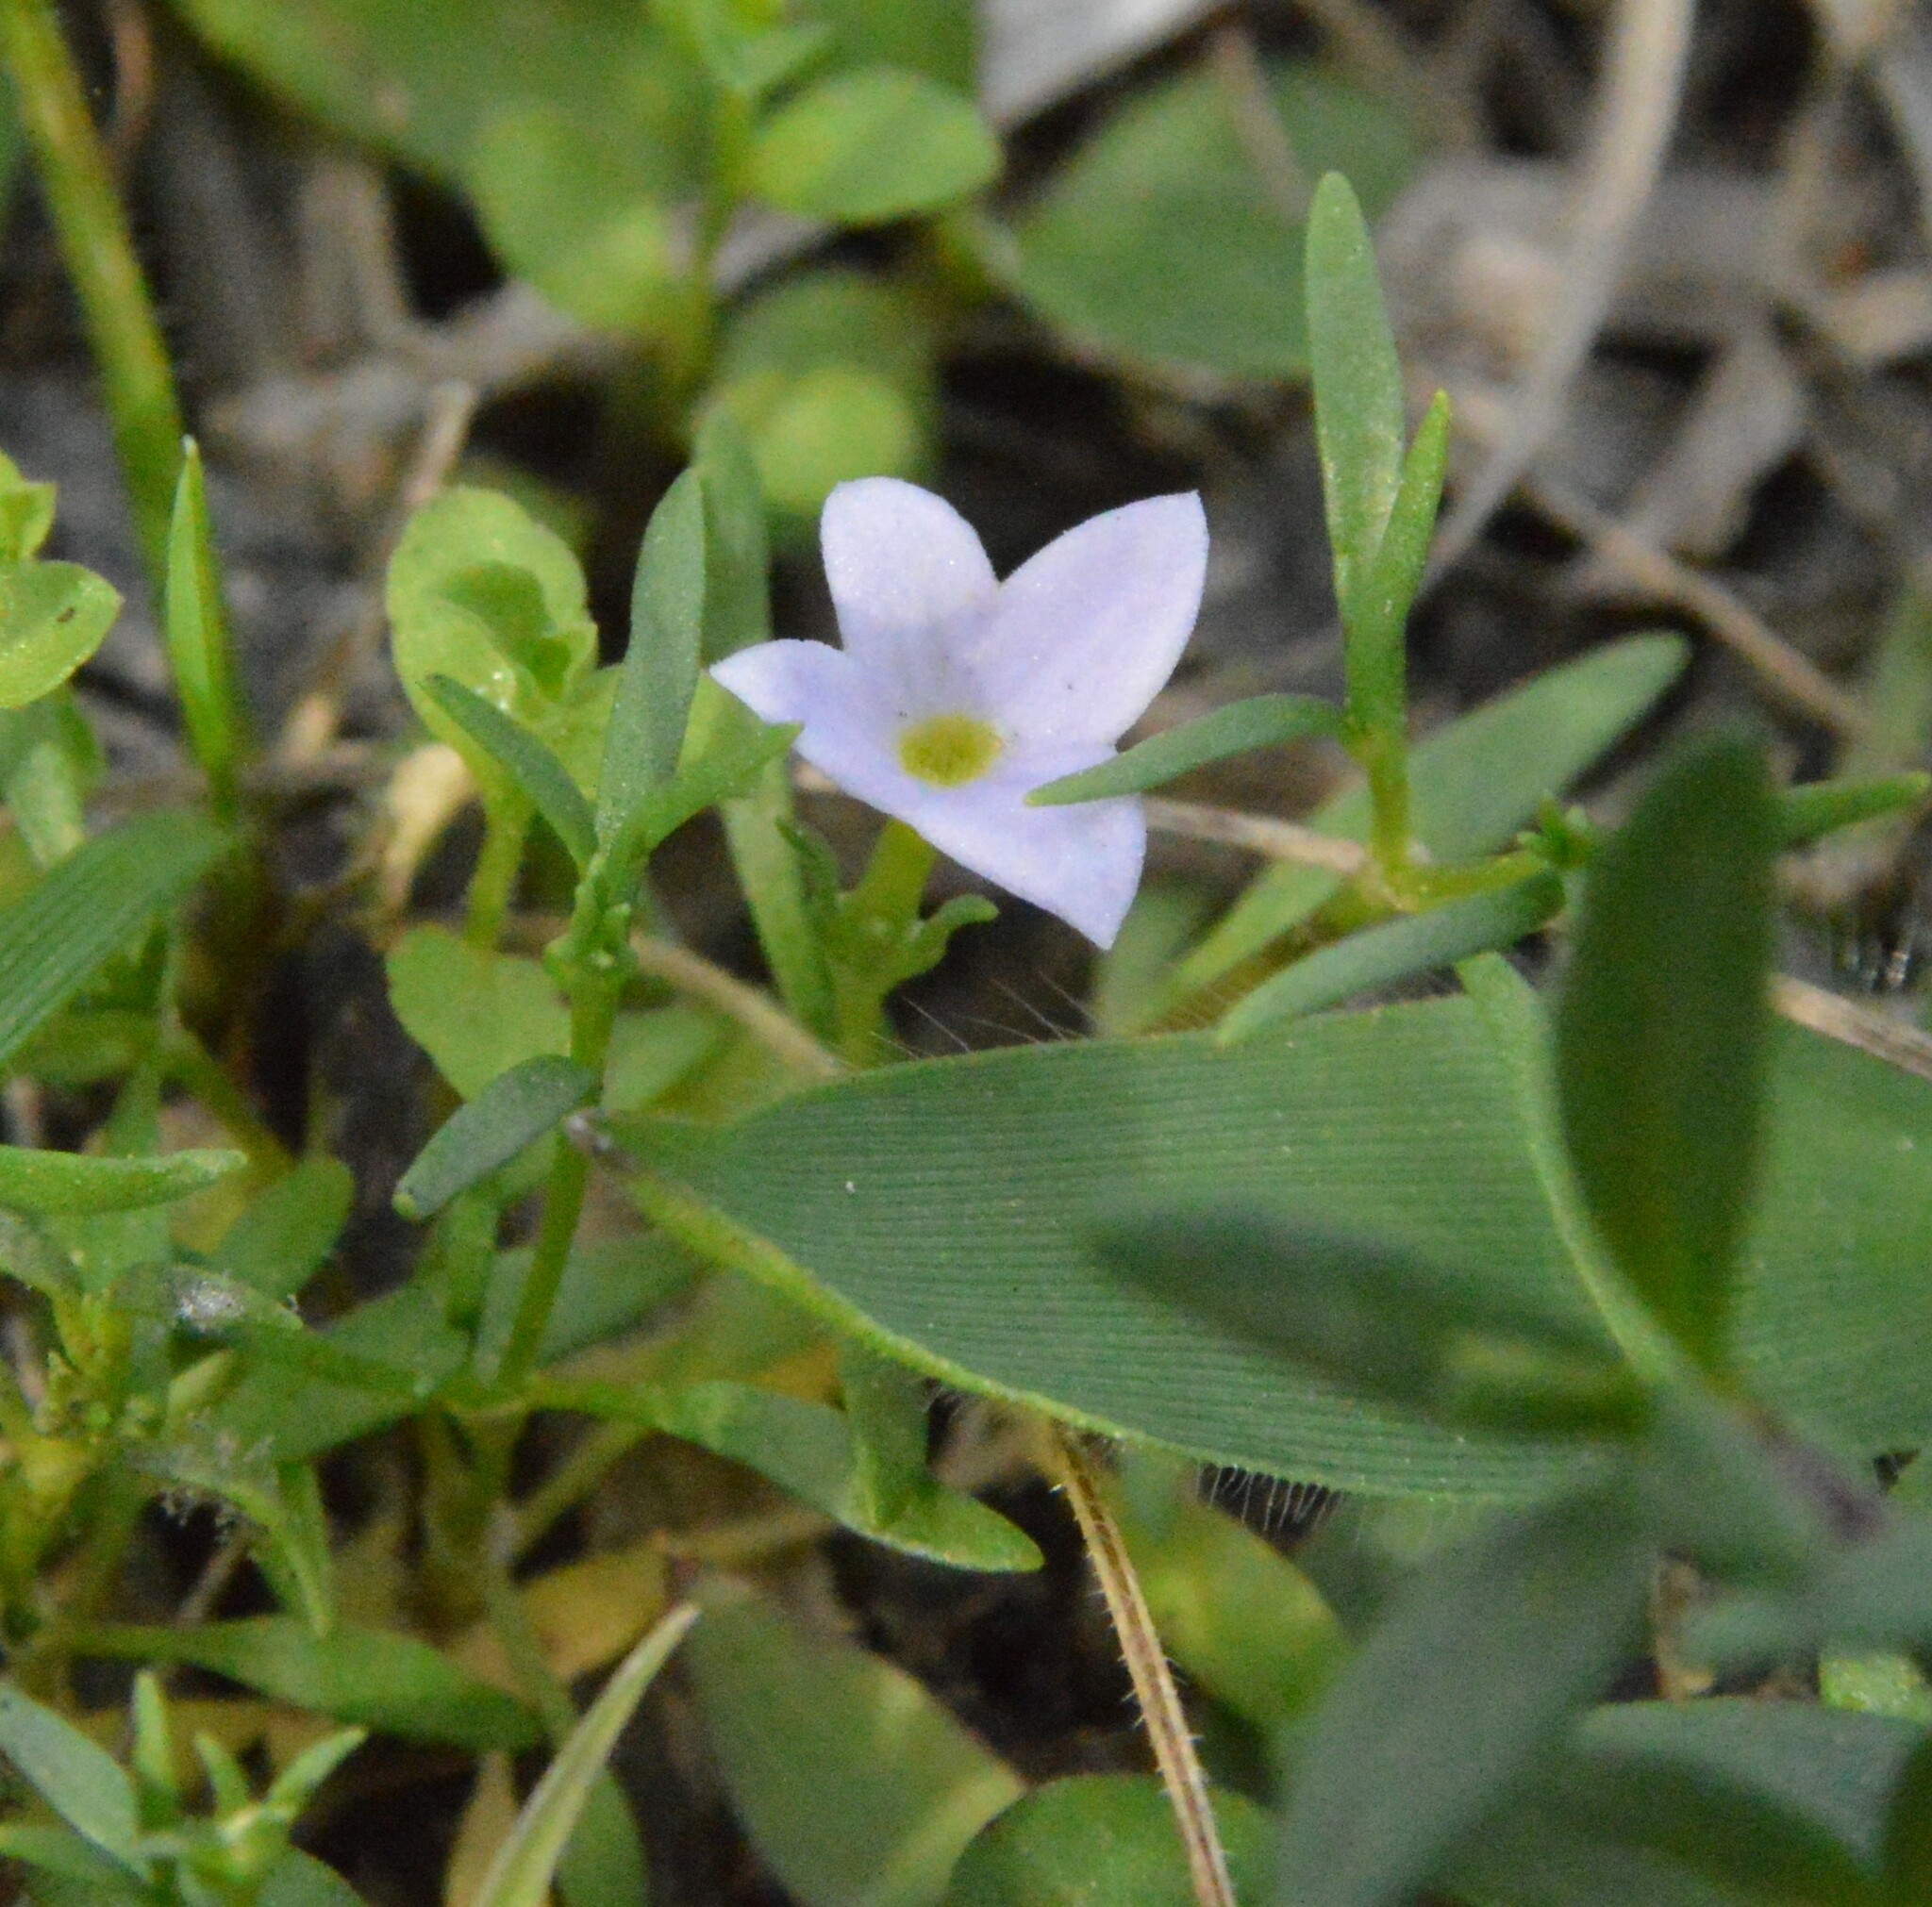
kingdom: Plantae
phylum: Tracheophyta
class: Magnoliopsida
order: Gentianales
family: Rubiaceae
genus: Houstonia
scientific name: Houstonia rosea
